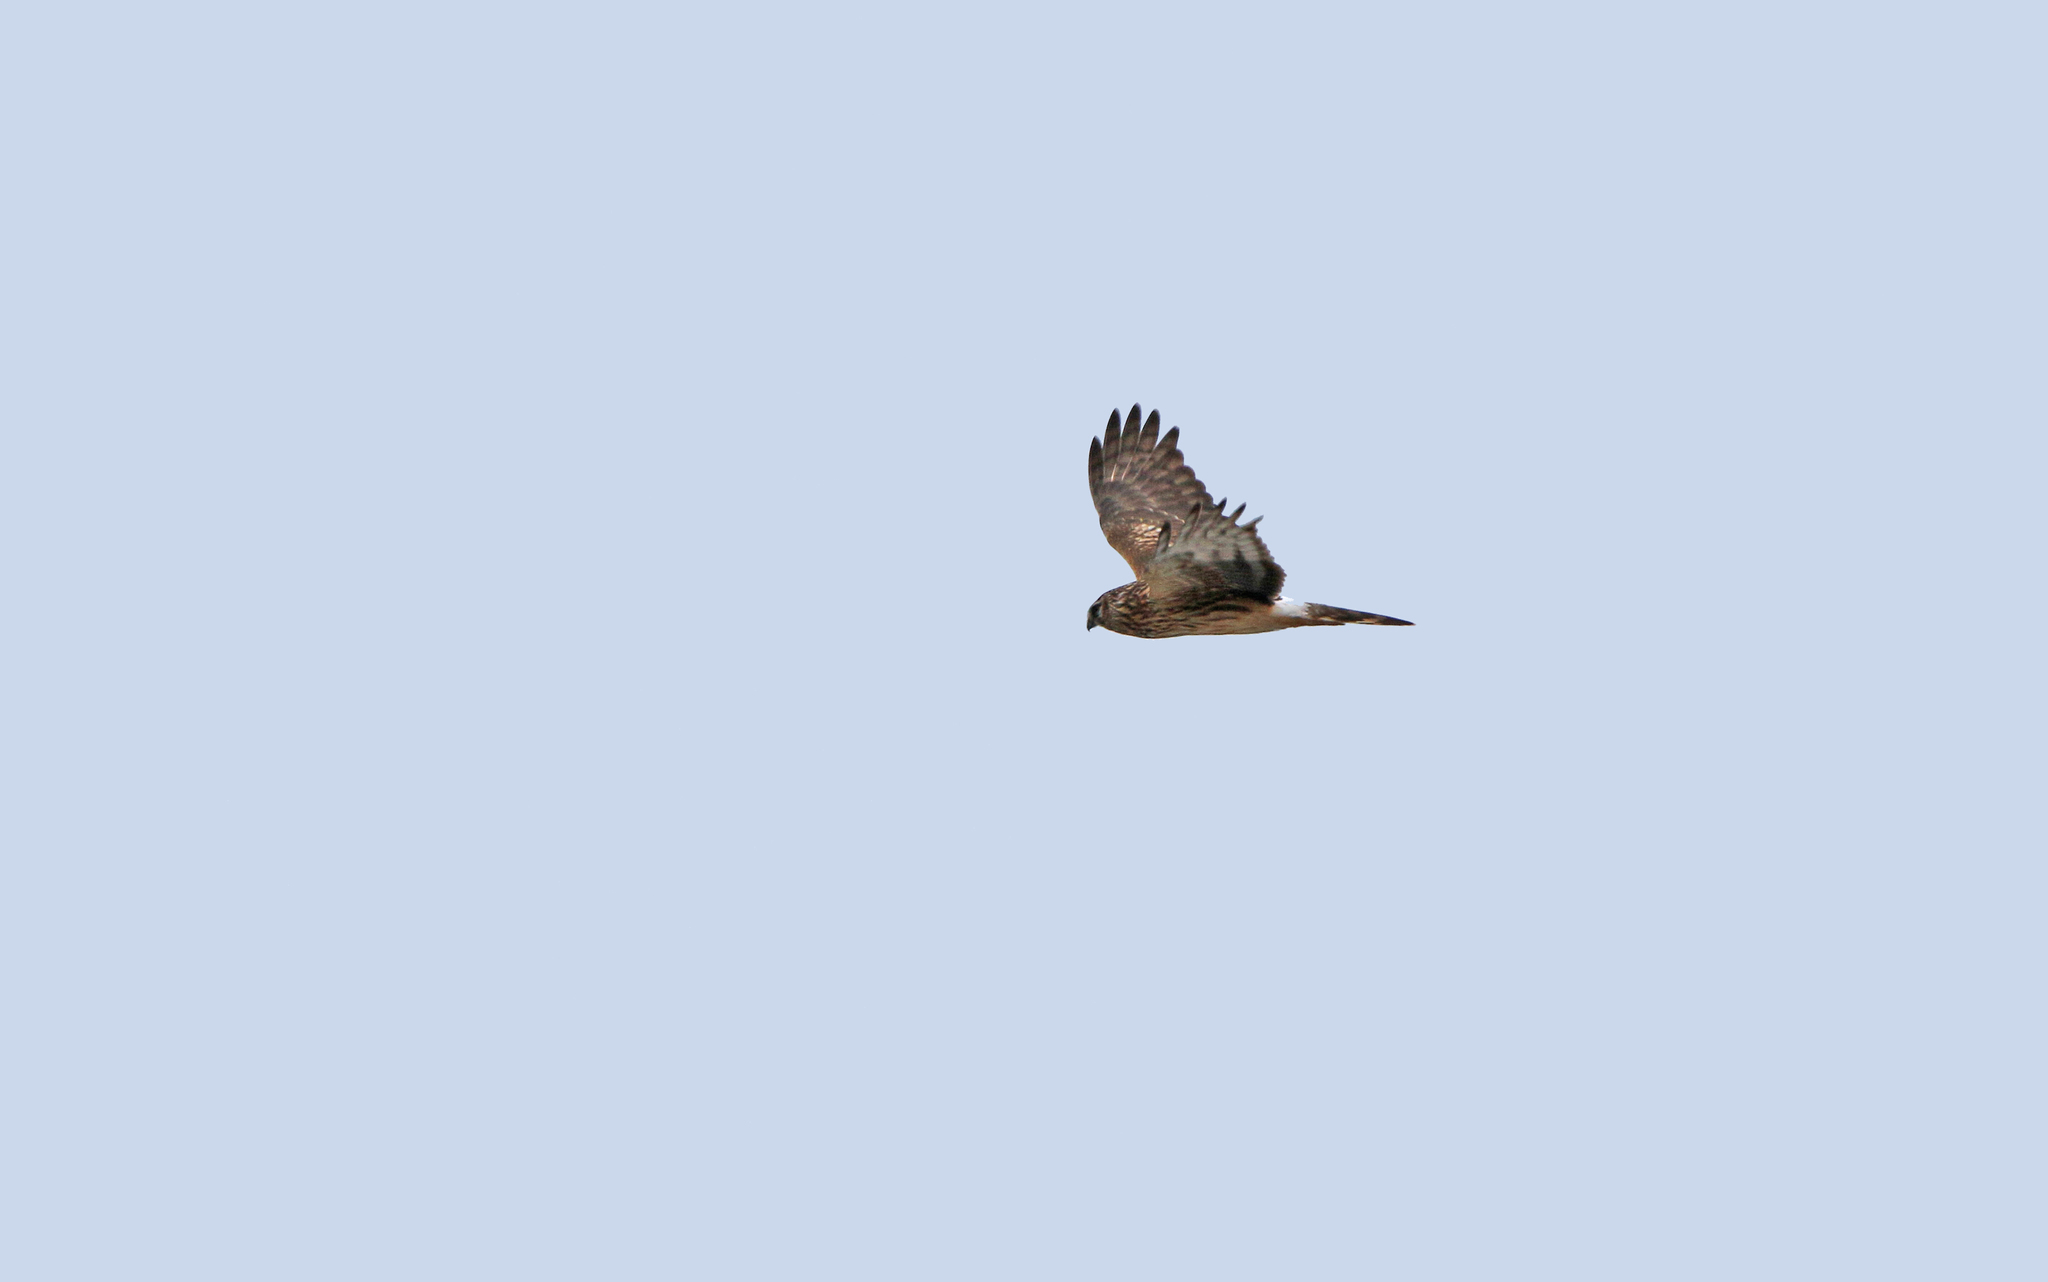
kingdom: Animalia
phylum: Chordata
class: Aves
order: Accipitriformes
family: Accipitridae
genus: Circus
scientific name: Circus cyaneus
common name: Hen harrier
